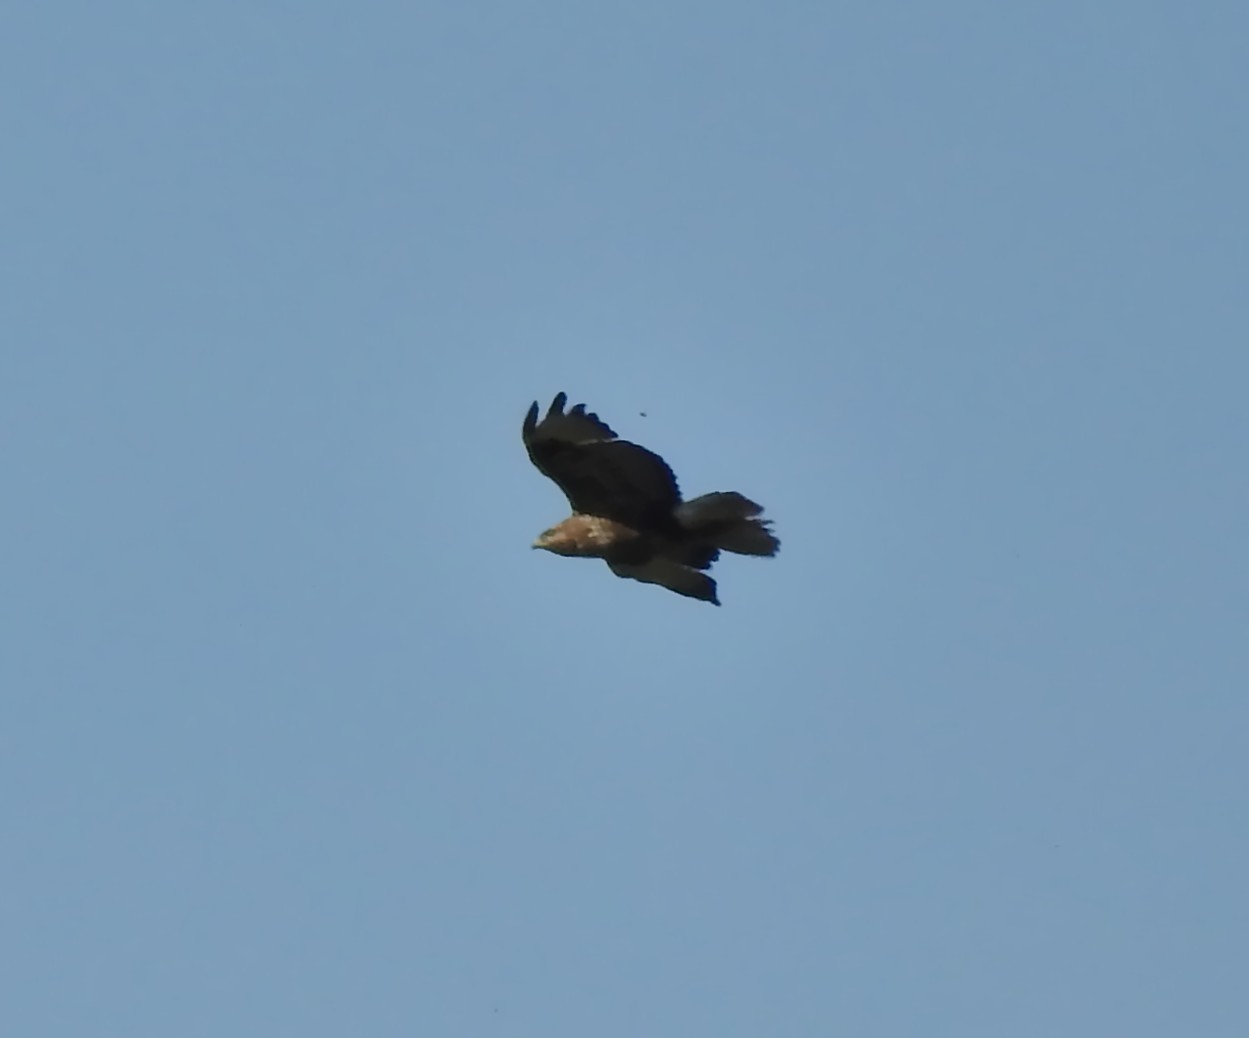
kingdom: Animalia
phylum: Chordata
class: Aves
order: Accipitriformes
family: Accipitridae
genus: Buteo
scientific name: Buteo buteo
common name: Common buzzard
